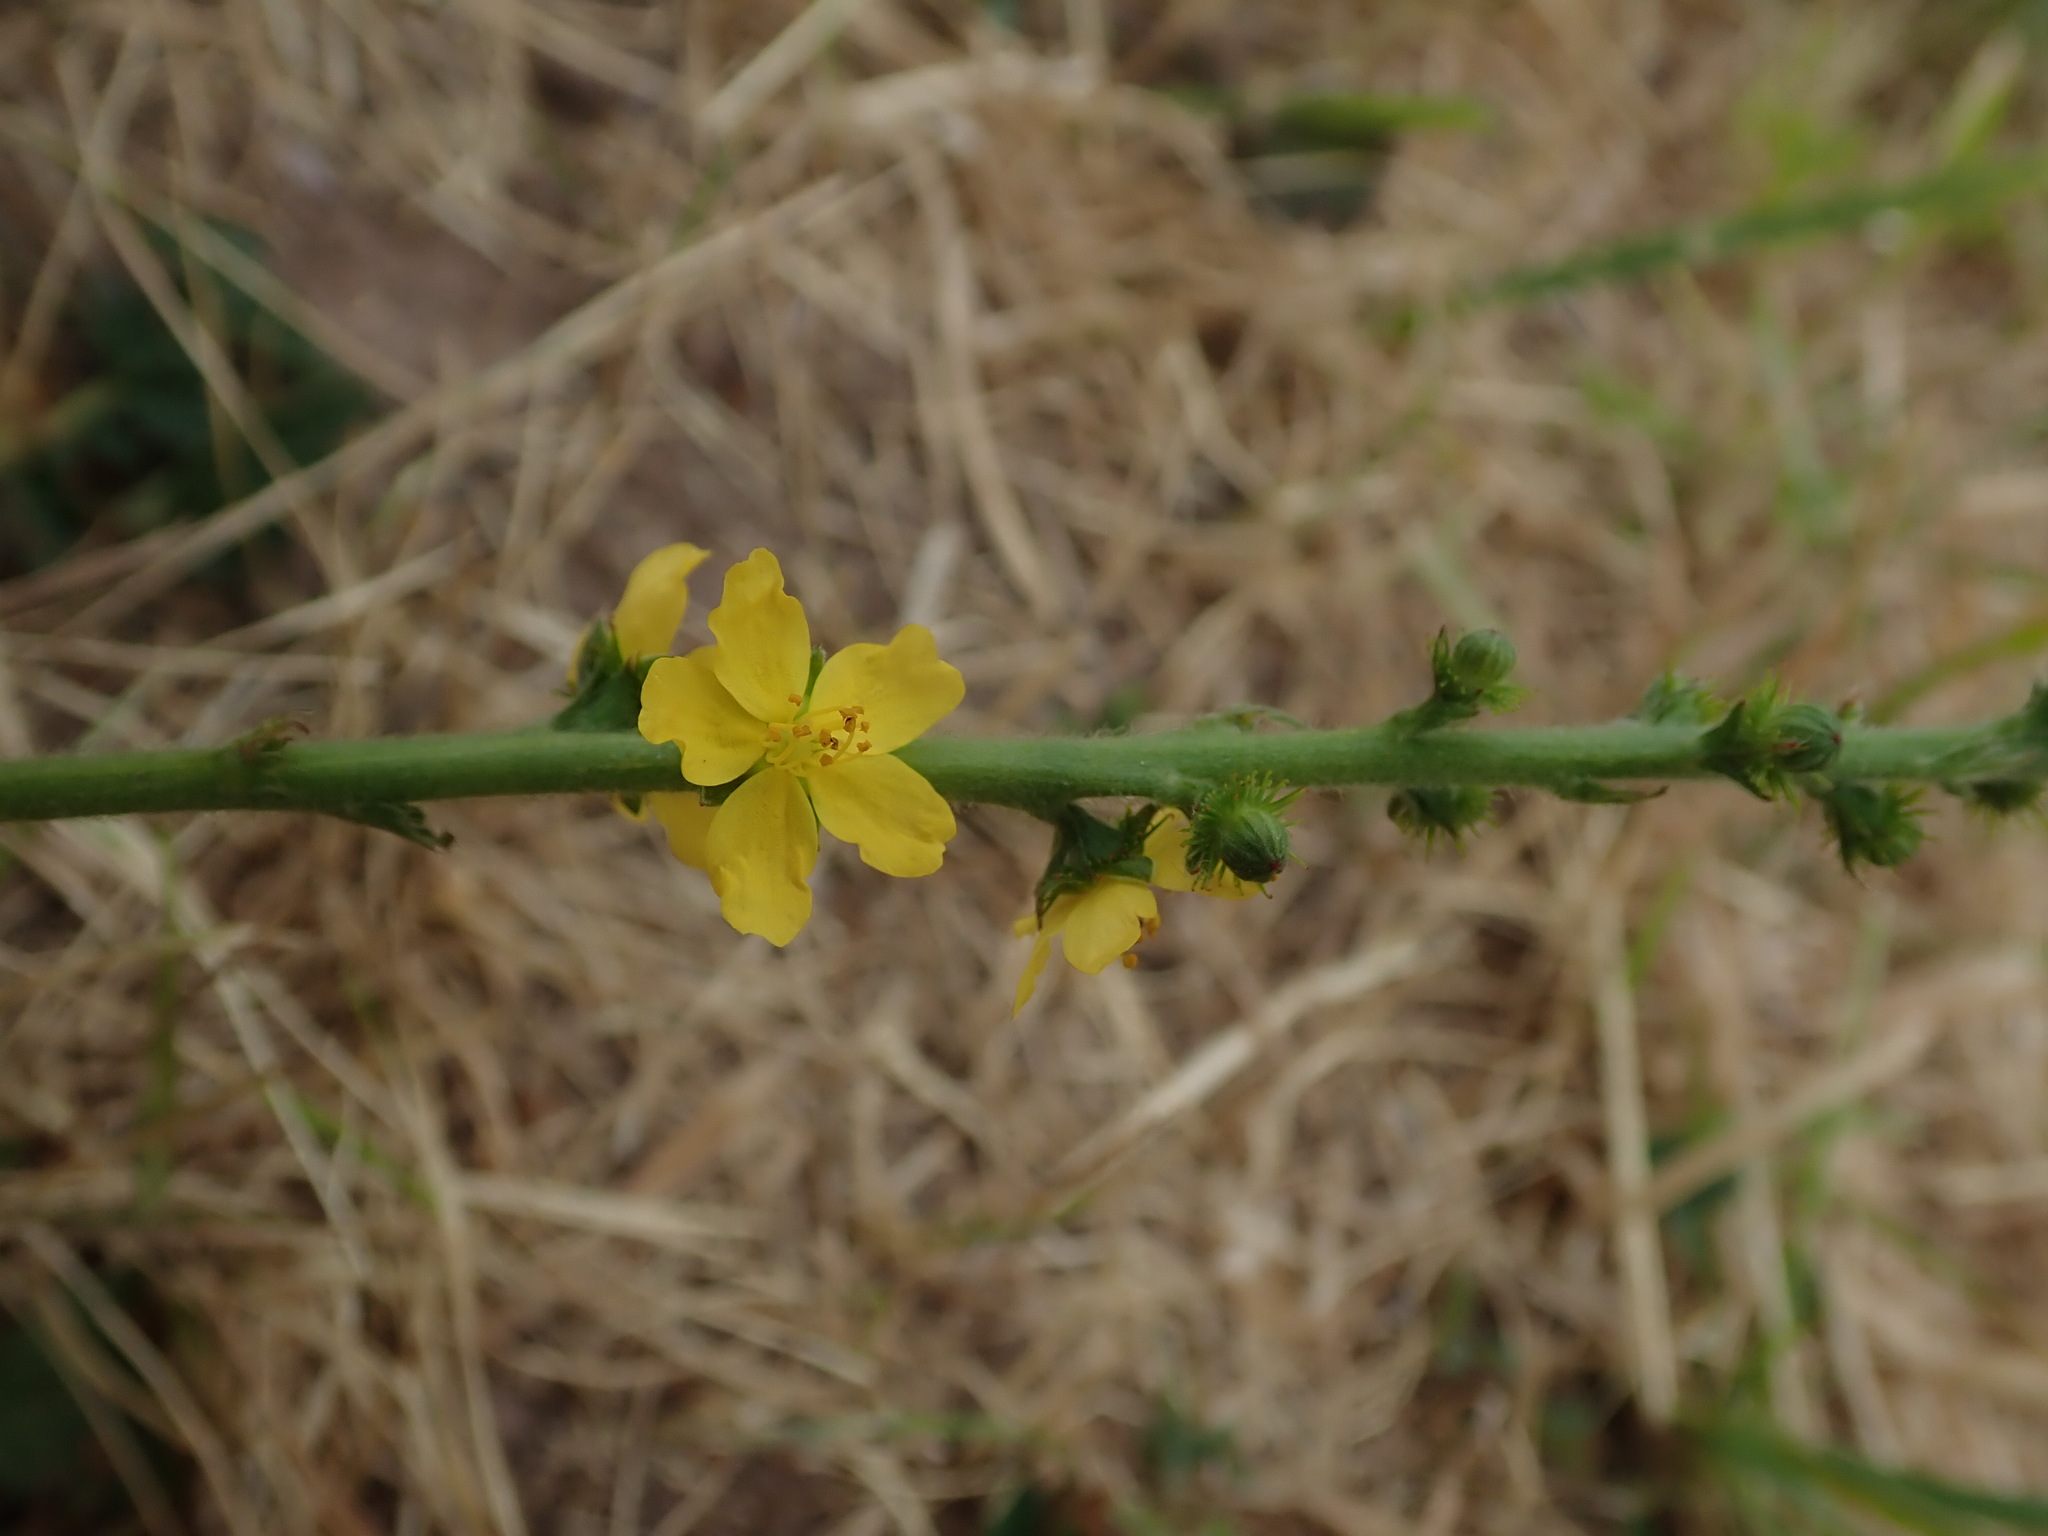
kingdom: Plantae
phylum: Tracheophyta
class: Magnoliopsida
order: Rosales
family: Rosaceae
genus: Agrimonia
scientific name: Agrimonia eupatoria
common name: Agrimony
